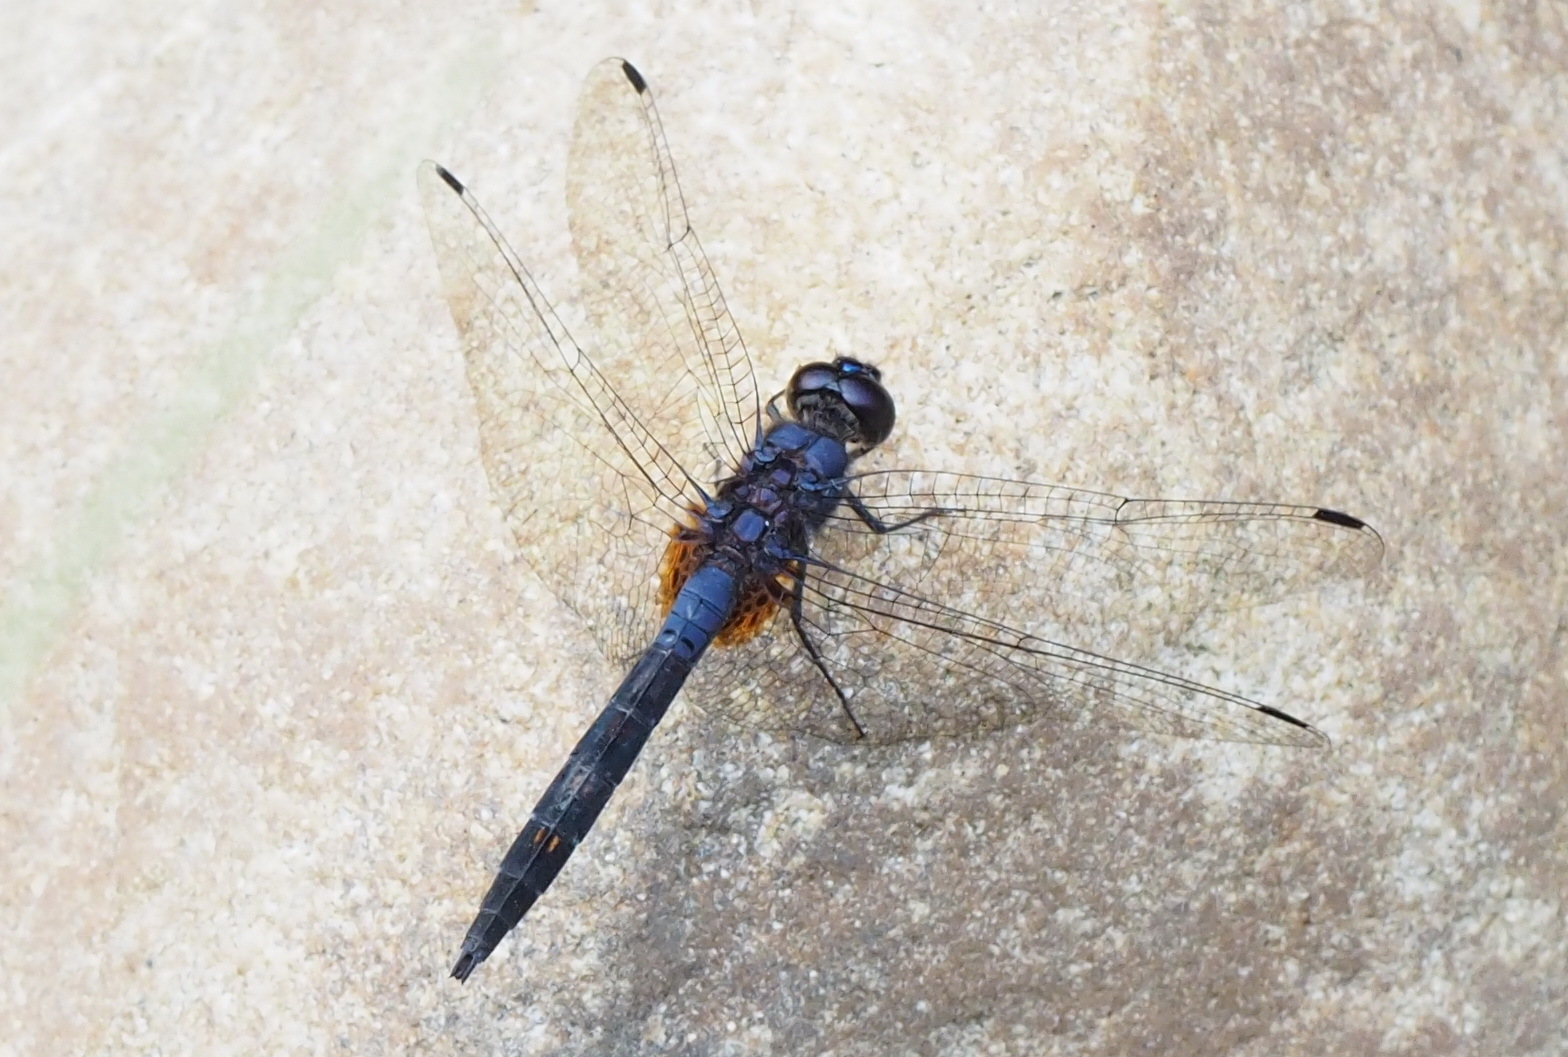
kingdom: Animalia
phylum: Arthropoda
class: Insecta
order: Odonata
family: Libellulidae
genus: Trithemis
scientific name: Trithemis festiva
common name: Indigo dropwing
